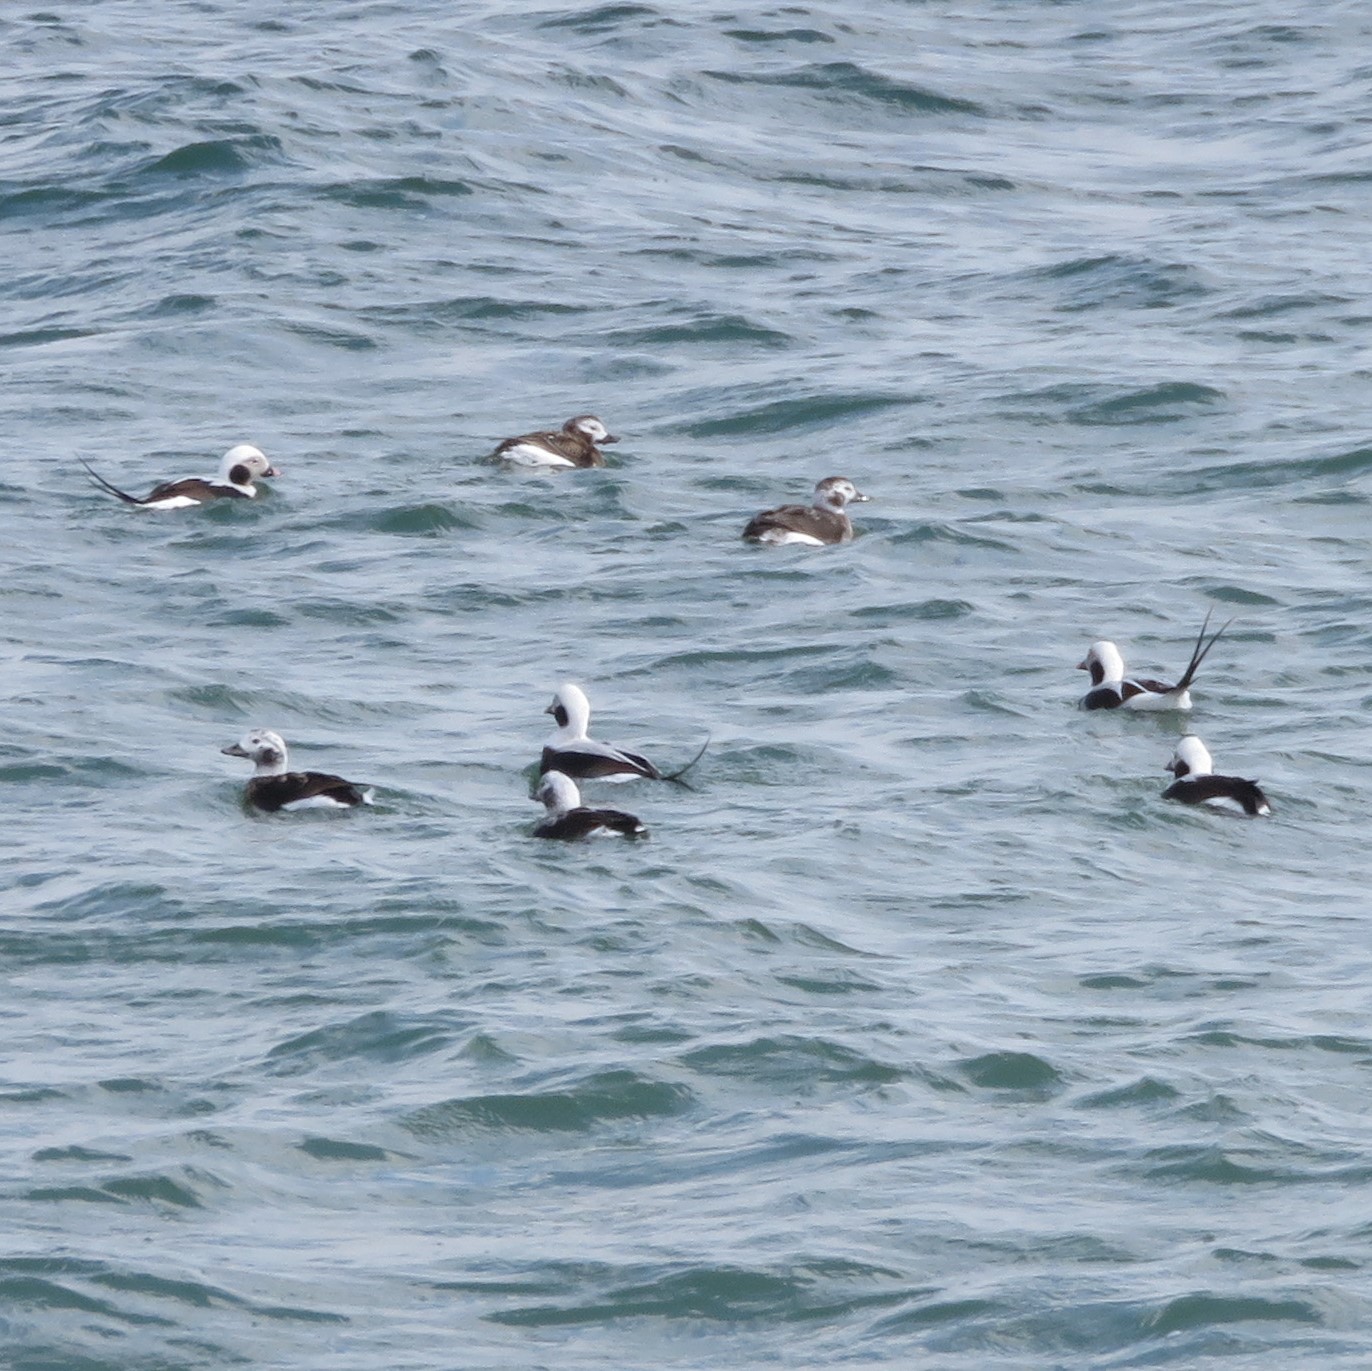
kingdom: Animalia
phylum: Chordata
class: Aves
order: Anseriformes
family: Anatidae
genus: Clangula
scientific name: Clangula hyemalis
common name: Long-tailed duck
